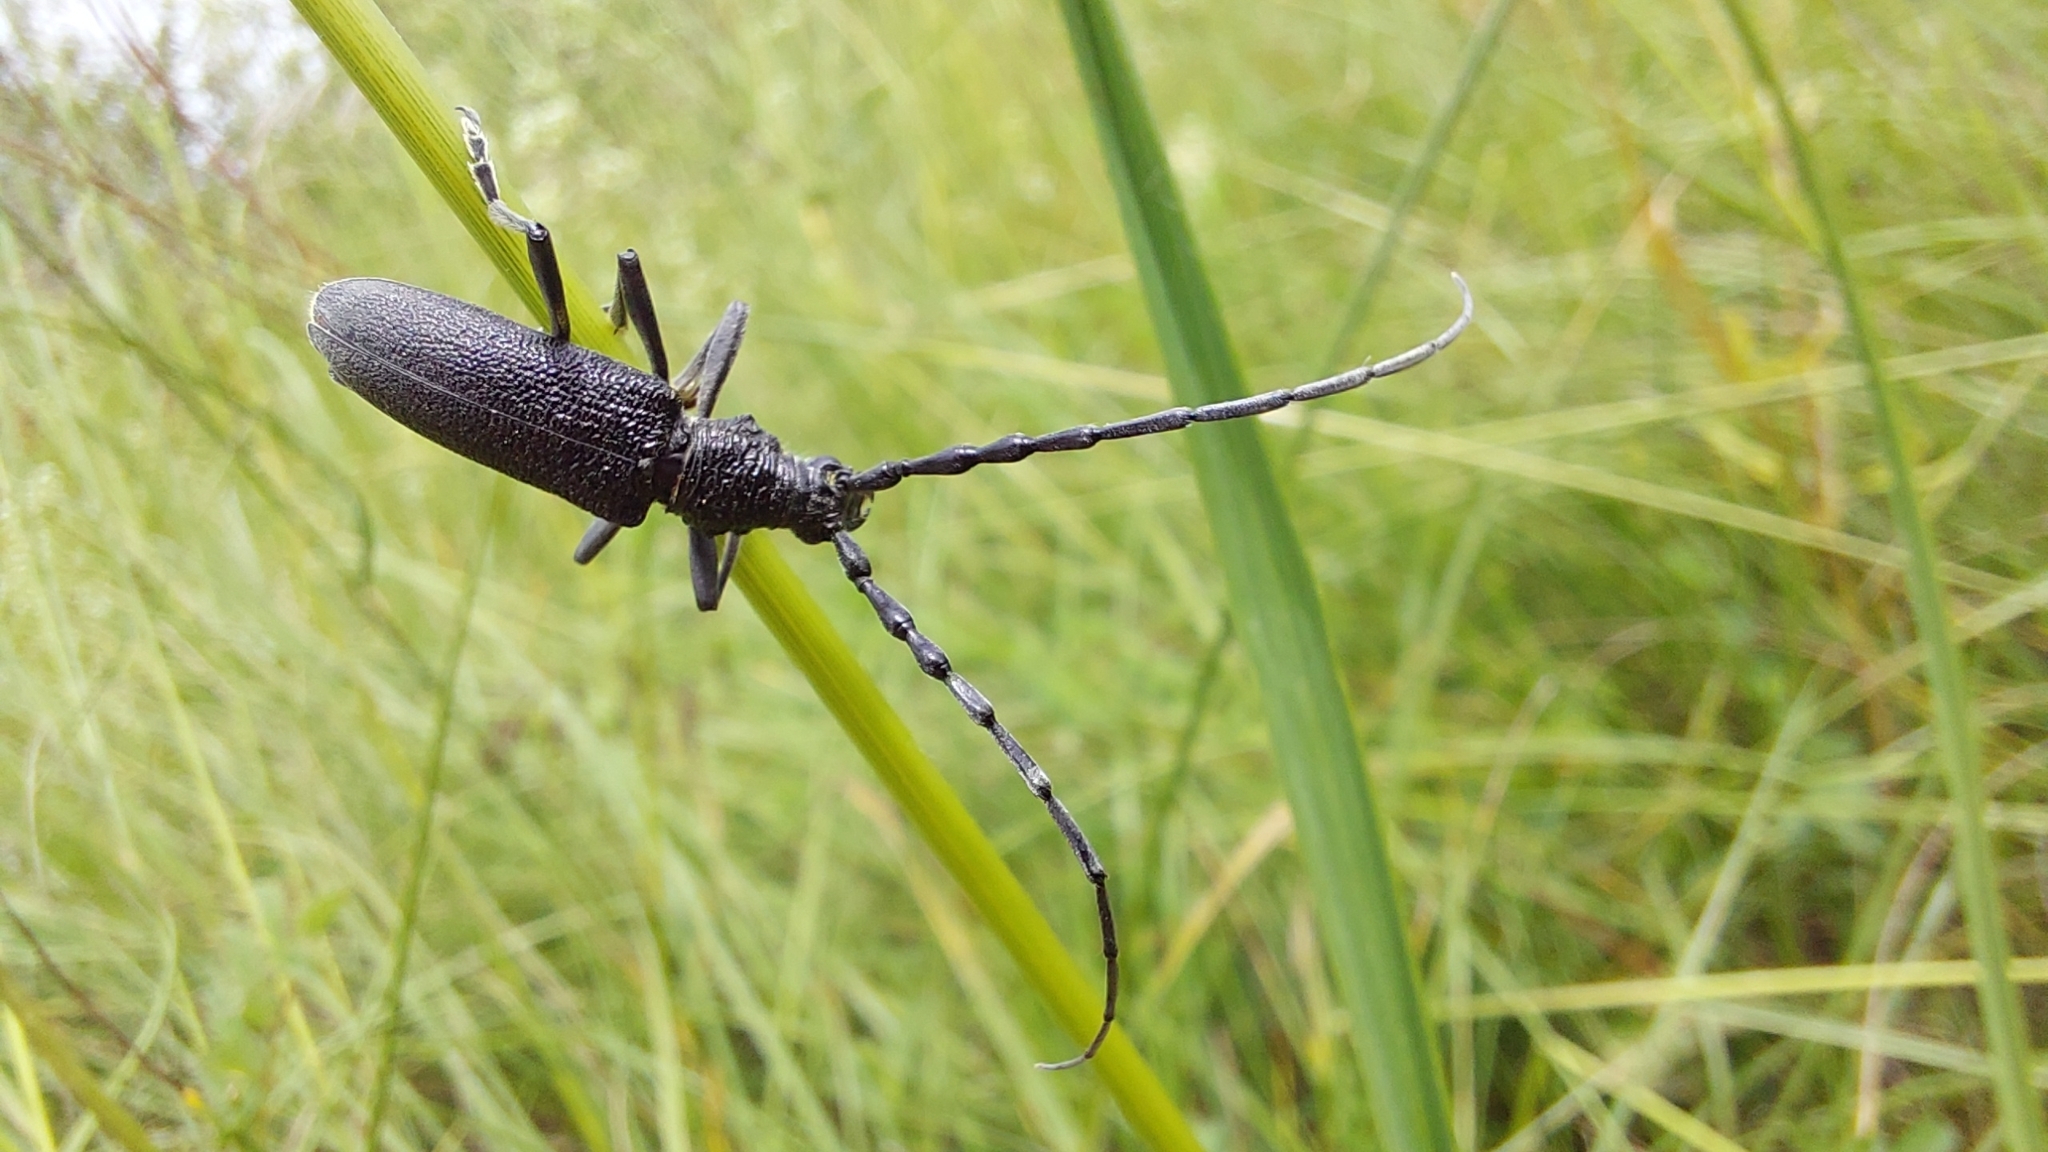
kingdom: Animalia
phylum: Arthropoda
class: Insecta
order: Coleoptera
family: Cerambycidae
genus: Cerambyx
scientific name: Cerambyx scopolii
